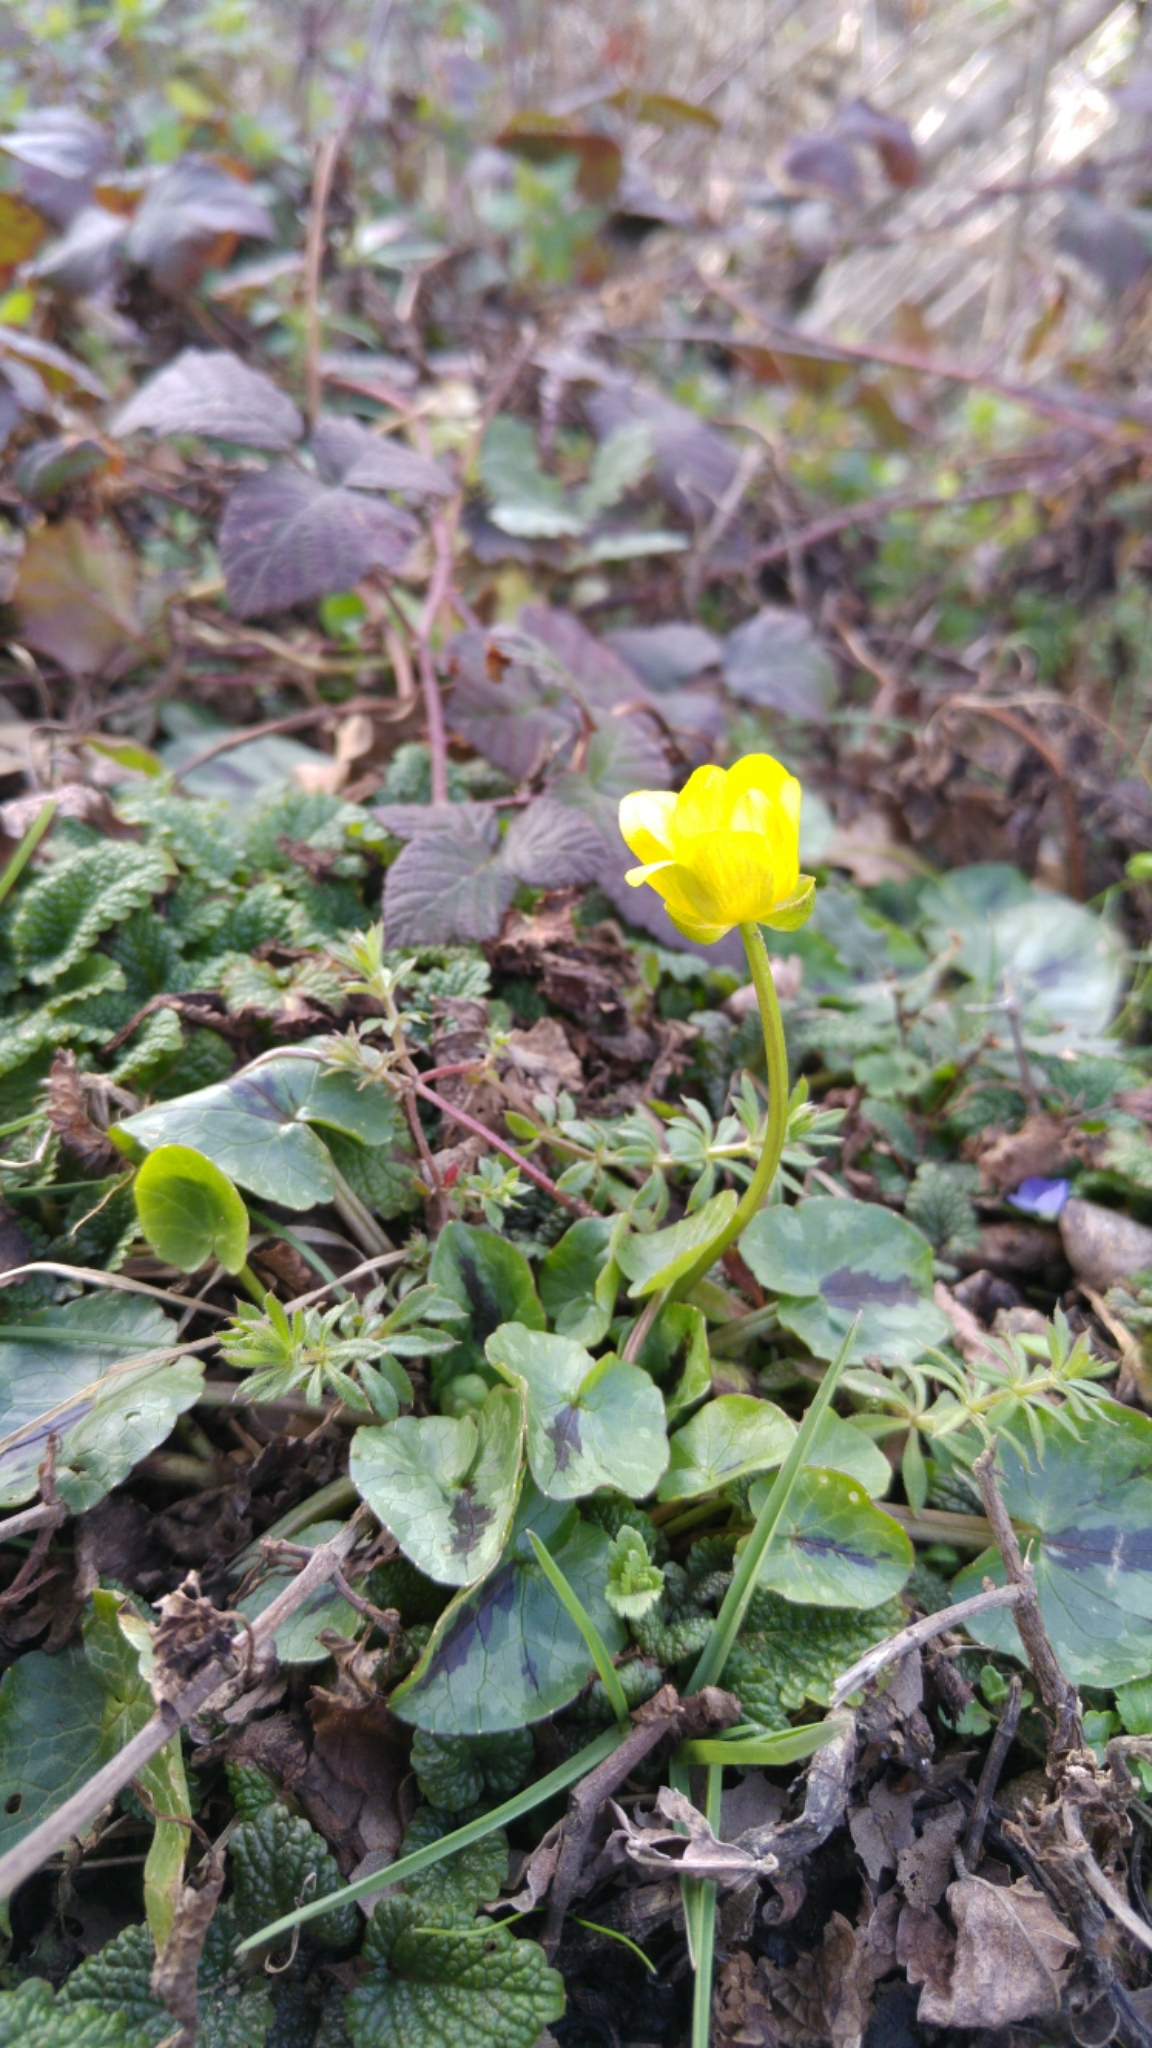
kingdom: Plantae
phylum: Tracheophyta
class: Magnoliopsida
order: Ranunculales
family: Ranunculaceae
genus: Ficaria
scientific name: Ficaria verna
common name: Lesser celandine
